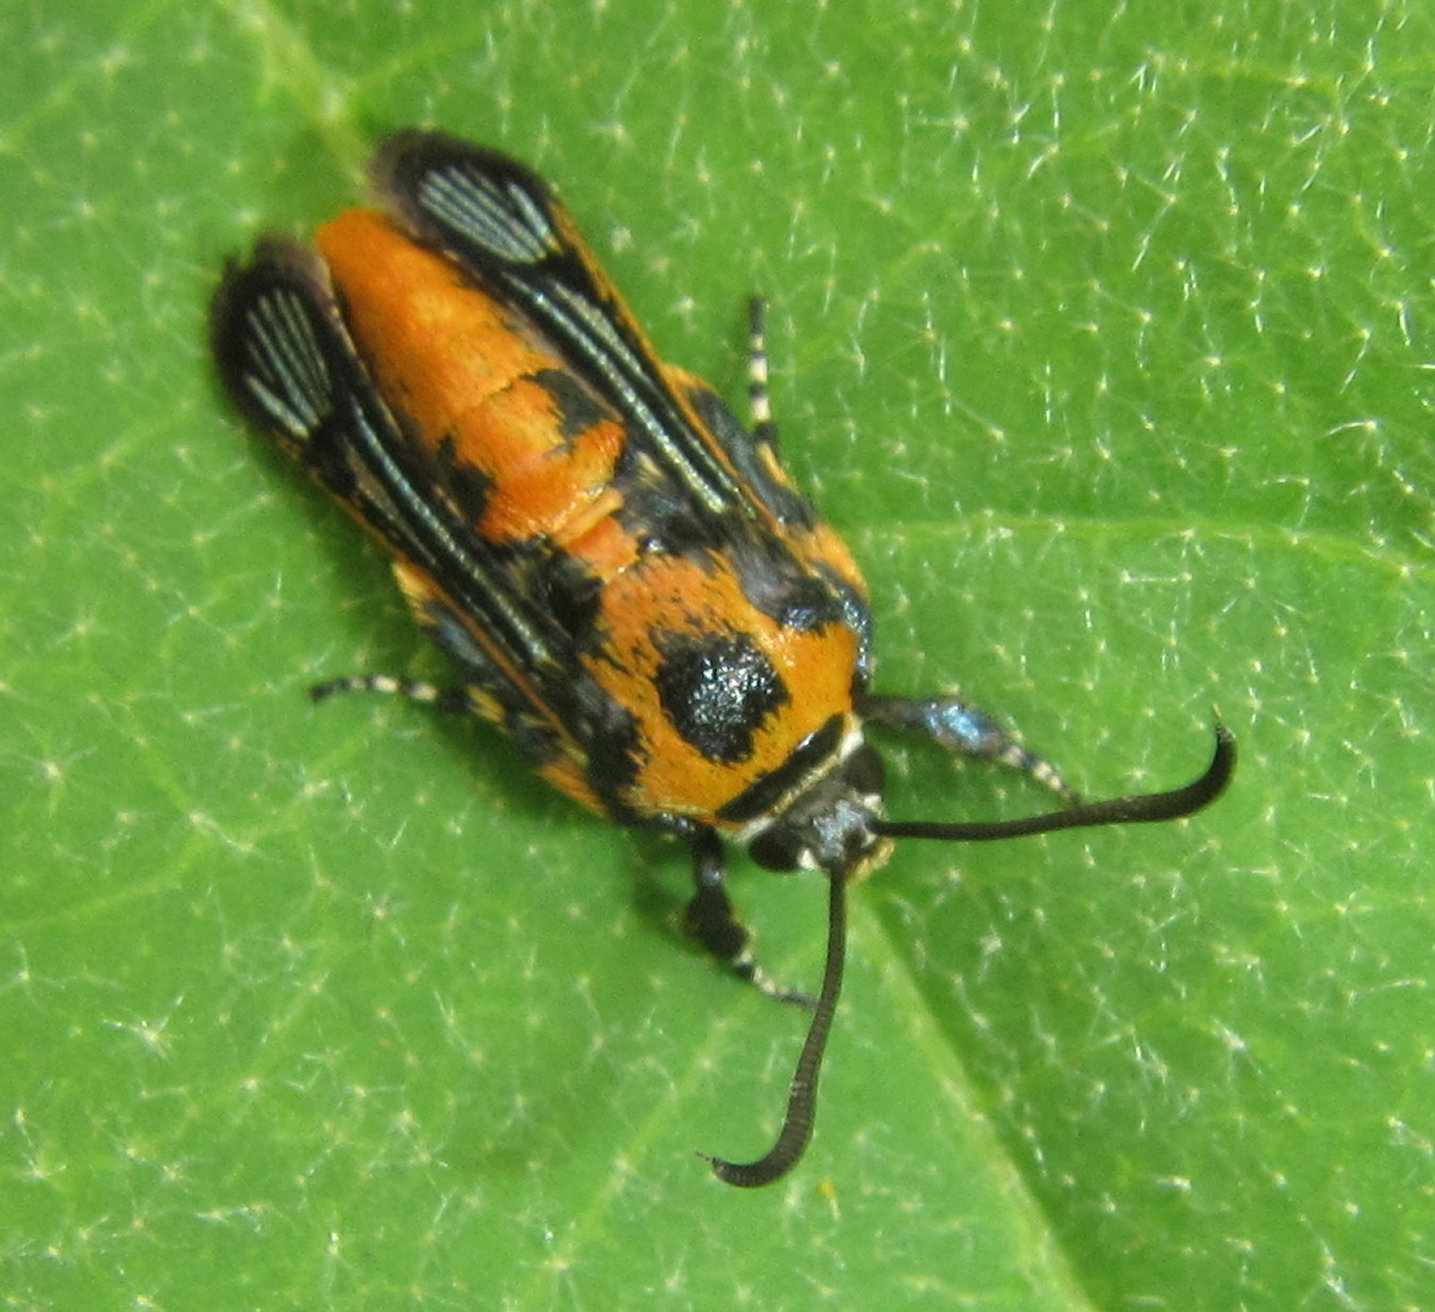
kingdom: Animalia
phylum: Arthropoda
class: Insecta
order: Lepidoptera
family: Sesiidae
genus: Homogyna
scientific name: Homogyna xanthomelaena
